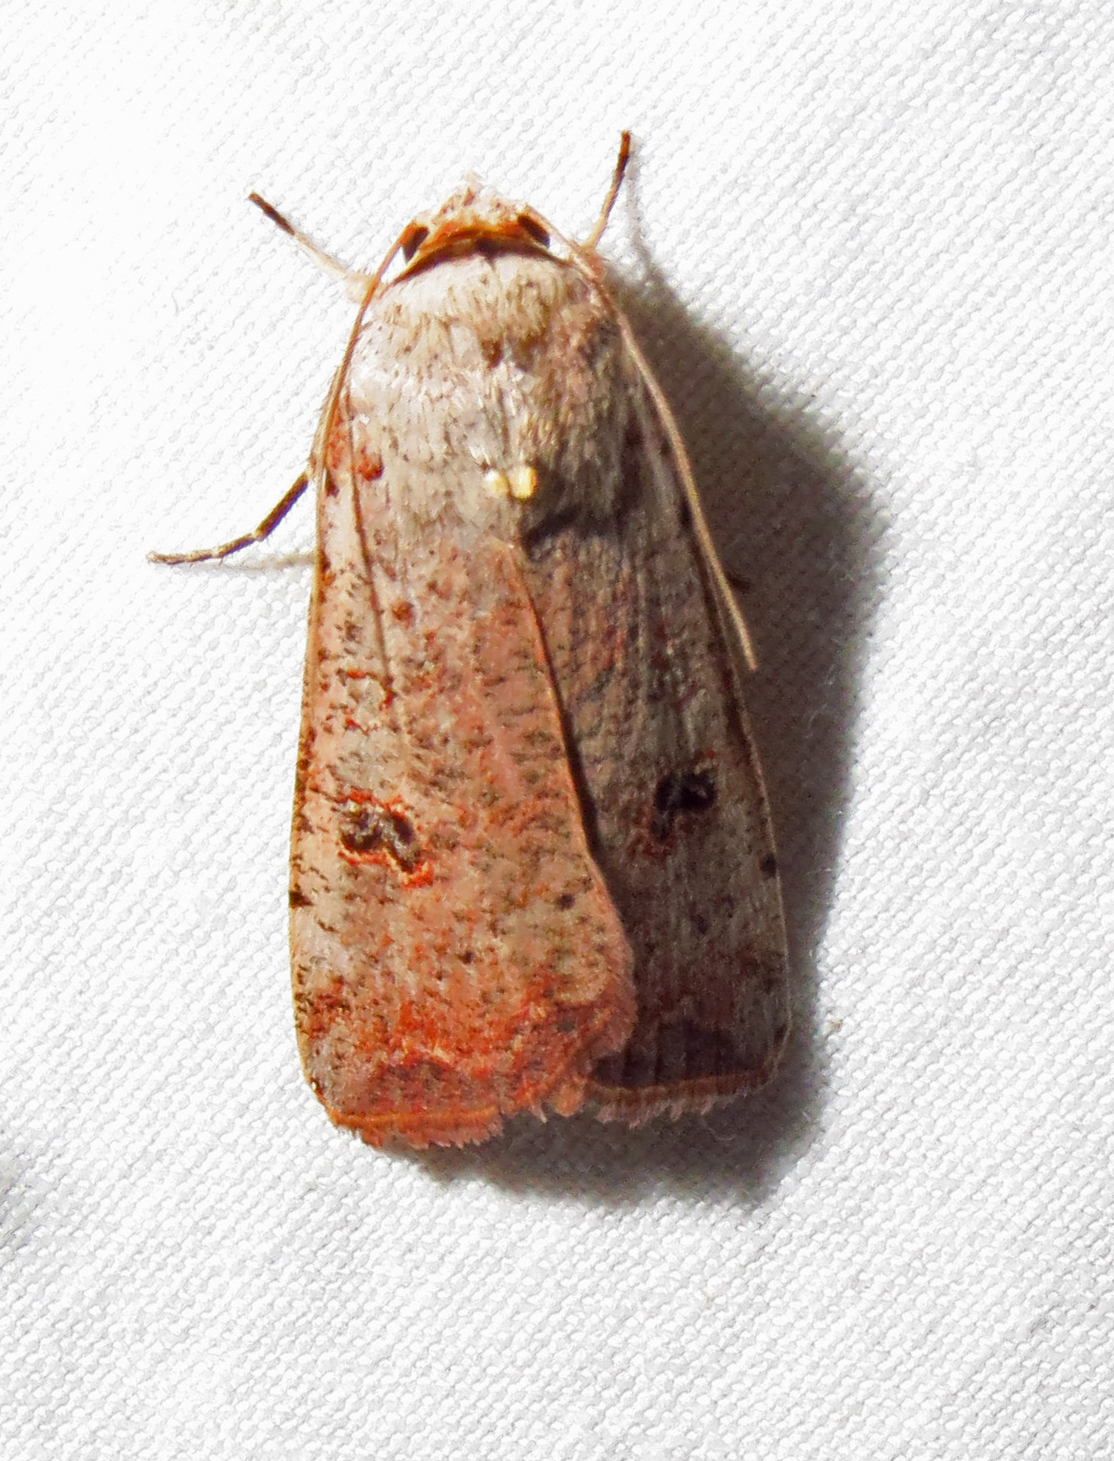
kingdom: Animalia
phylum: Arthropoda
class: Insecta
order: Lepidoptera
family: Noctuidae
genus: Anicla
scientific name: Anicla infecta
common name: Green cutworm
